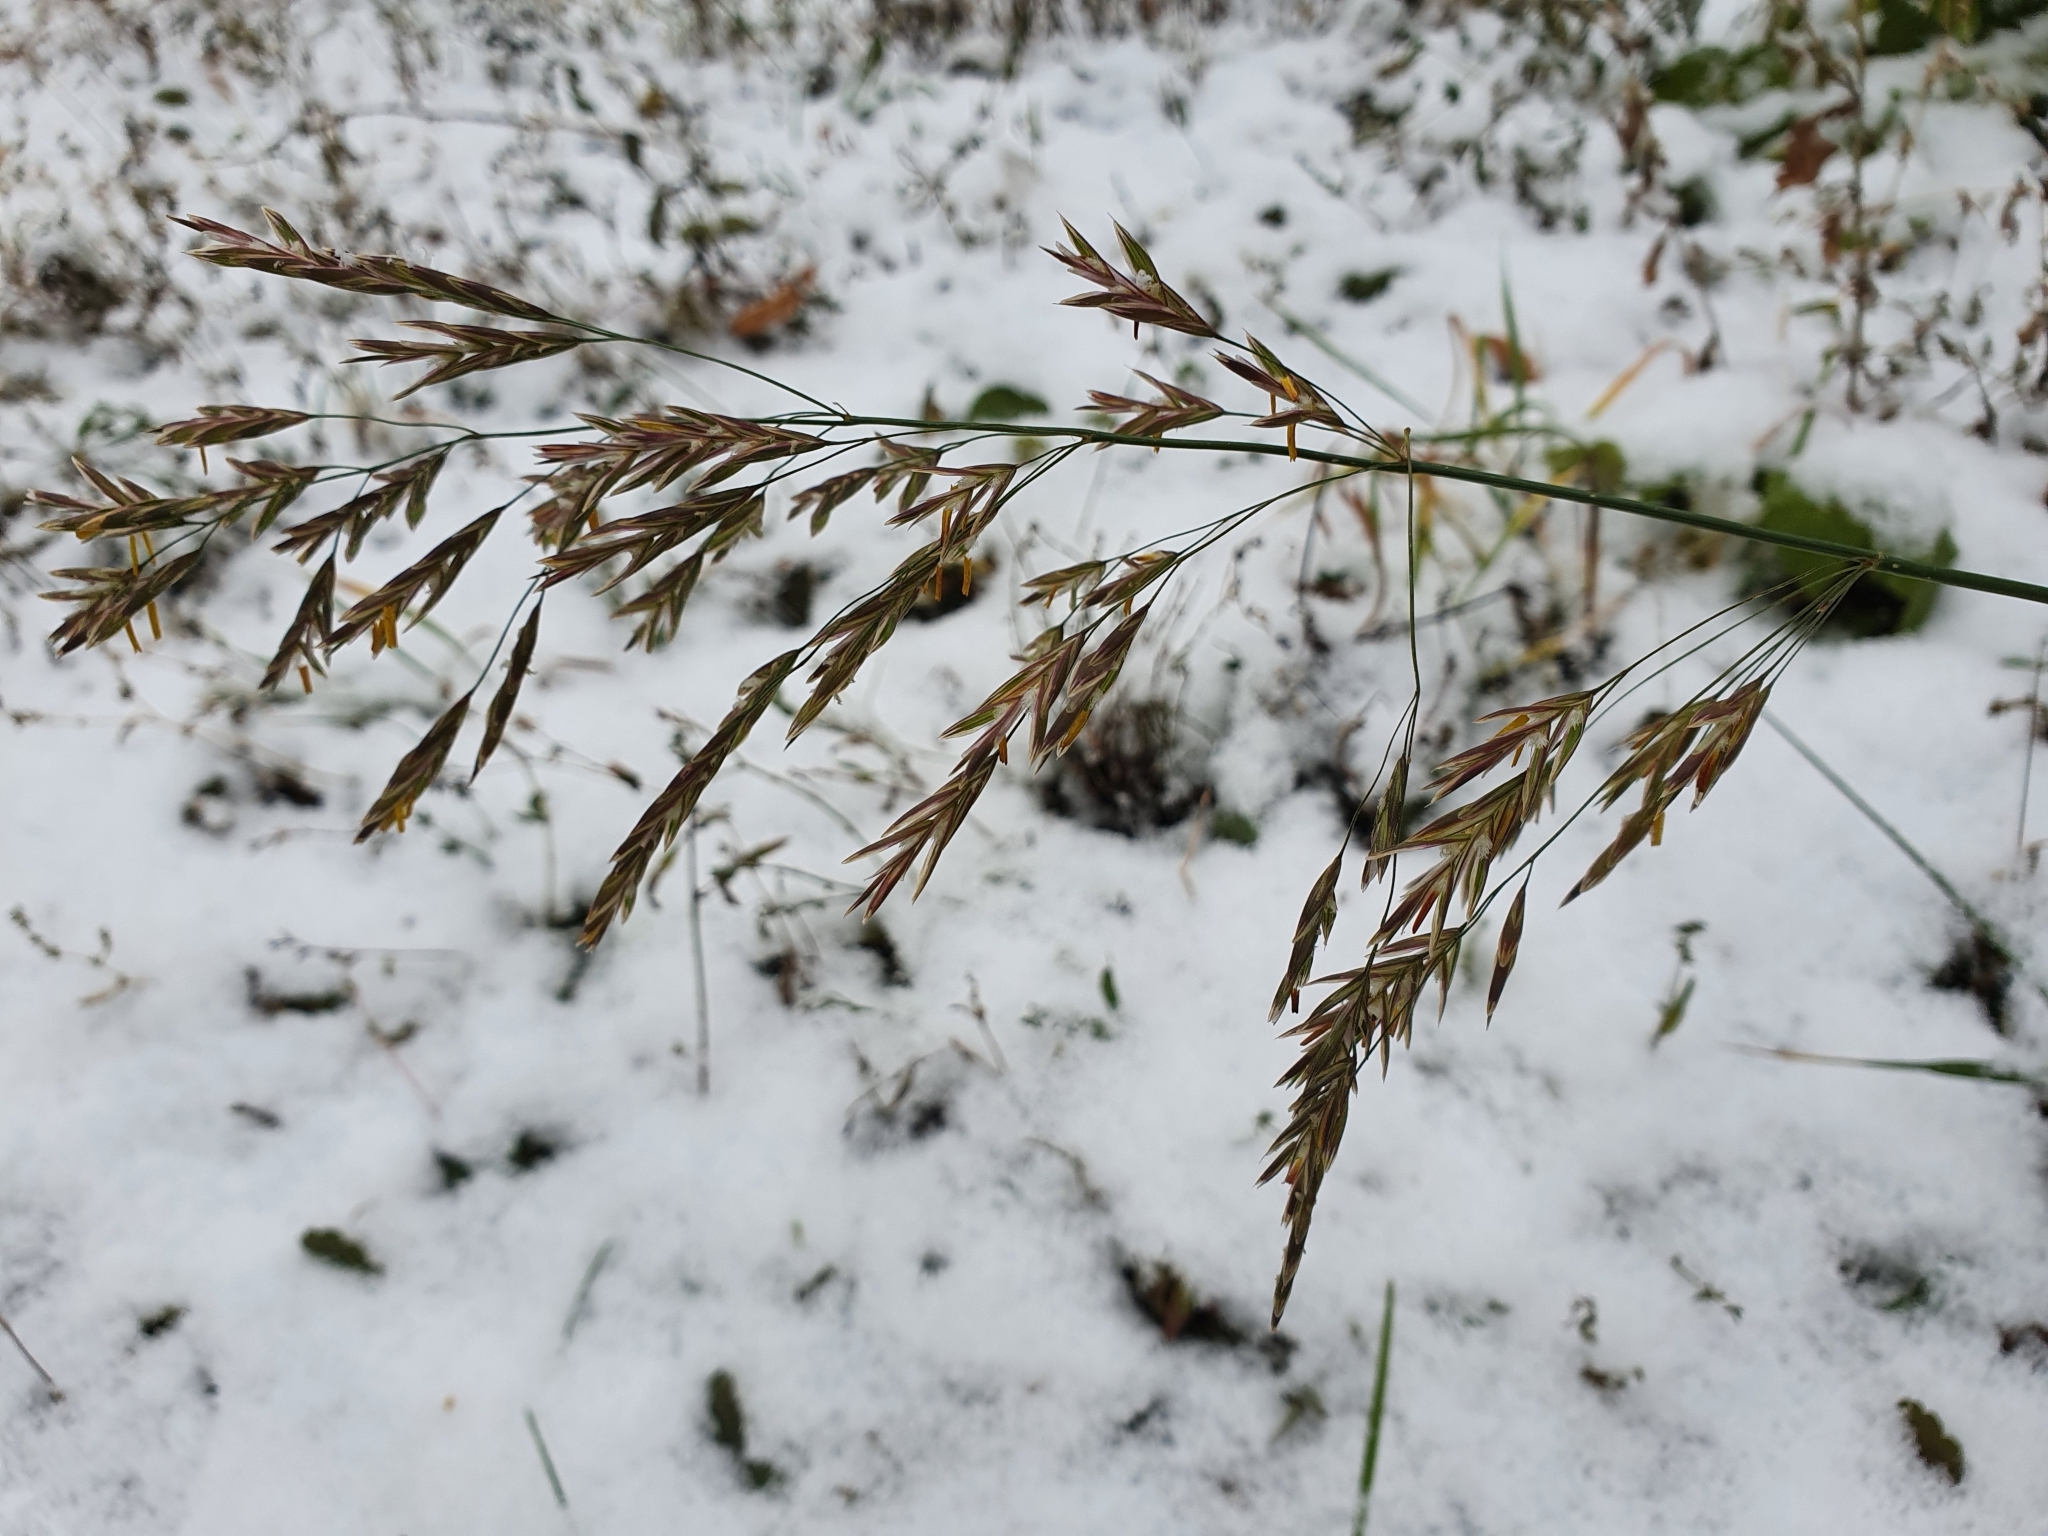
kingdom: Plantae
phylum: Tracheophyta
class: Liliopsida
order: Poales
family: Poaceae
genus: Bromus
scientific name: Bromus inermis
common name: Smooth brome
